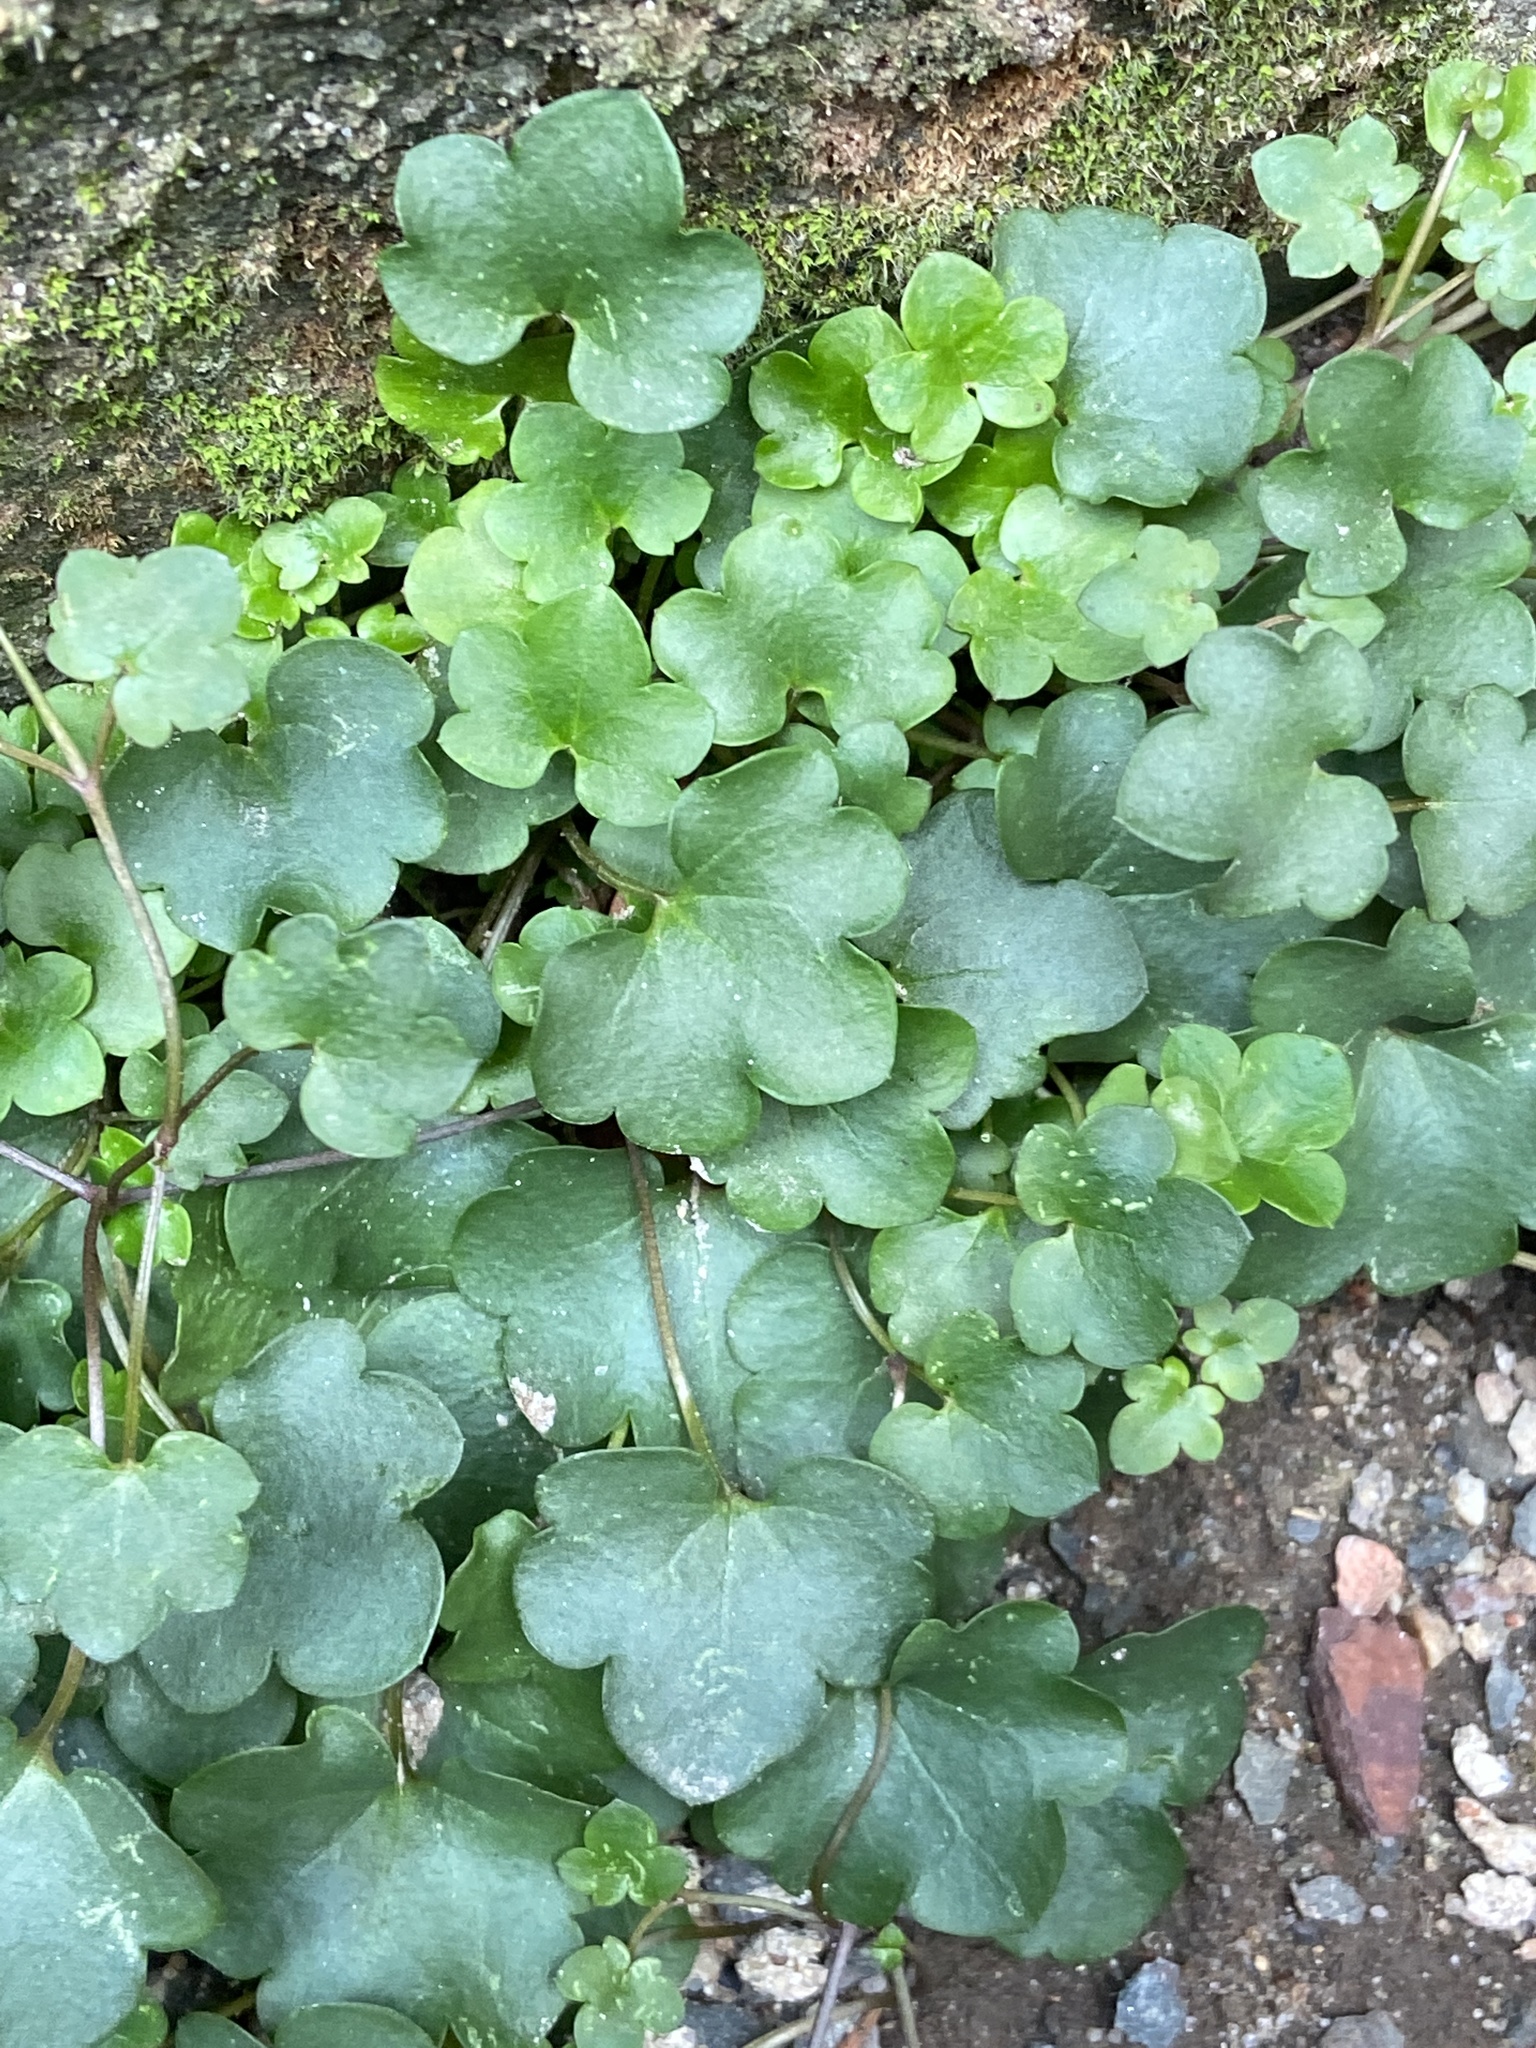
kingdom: Plantae
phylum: Tracheophyta
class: Magnoliopsida
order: Lamiales
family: Plantaginaceae
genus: Cymbalaria
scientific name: Cymbalaria muralis
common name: Ivy-leaved toadflax
